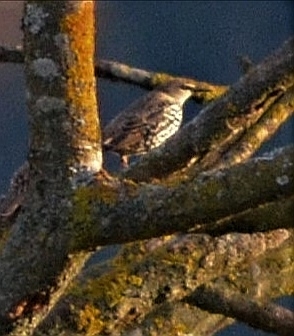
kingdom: Animalia
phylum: Chordata
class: Aves
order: Passeriformes
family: Sturnidae
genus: Sturnus
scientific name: Sturnus vulgaris
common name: Common starling
